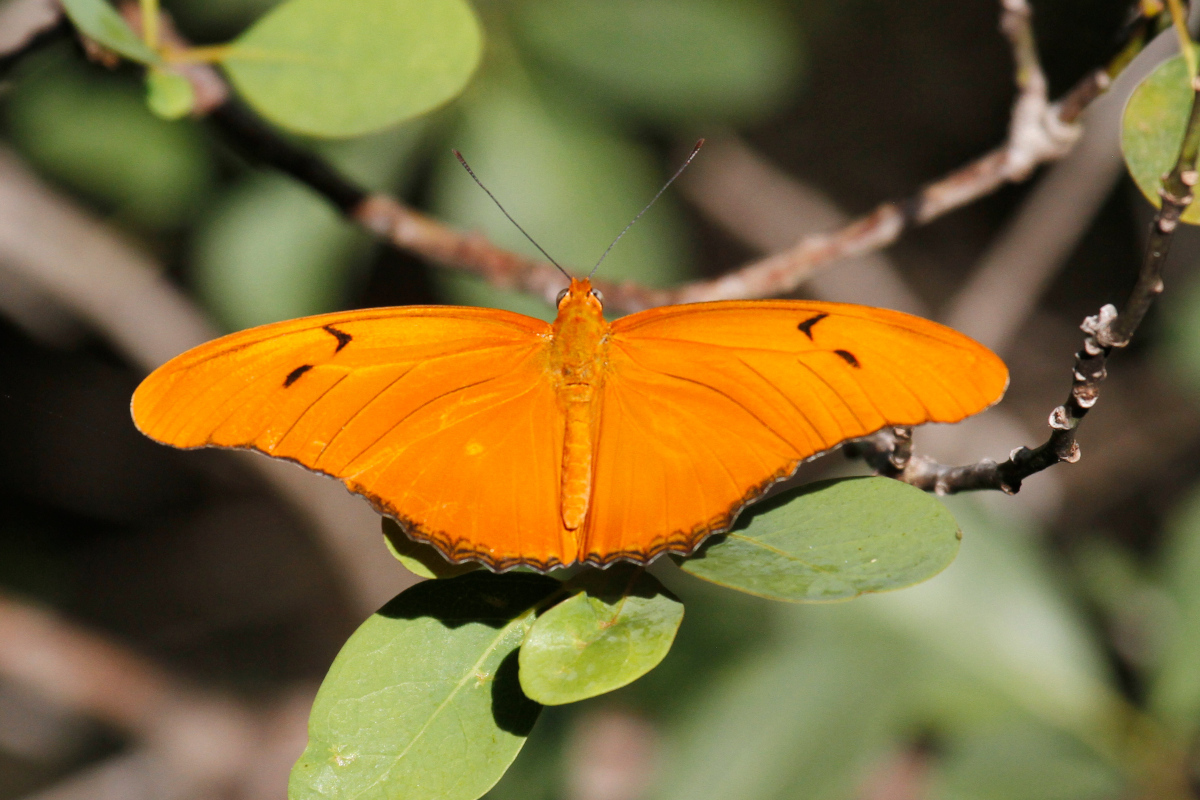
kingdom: Animalia
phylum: Arthropoda
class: Insecta
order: Lepidoptera
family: Nymphalidae
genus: Dryas
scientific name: Dryas iulia
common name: Flambeau
